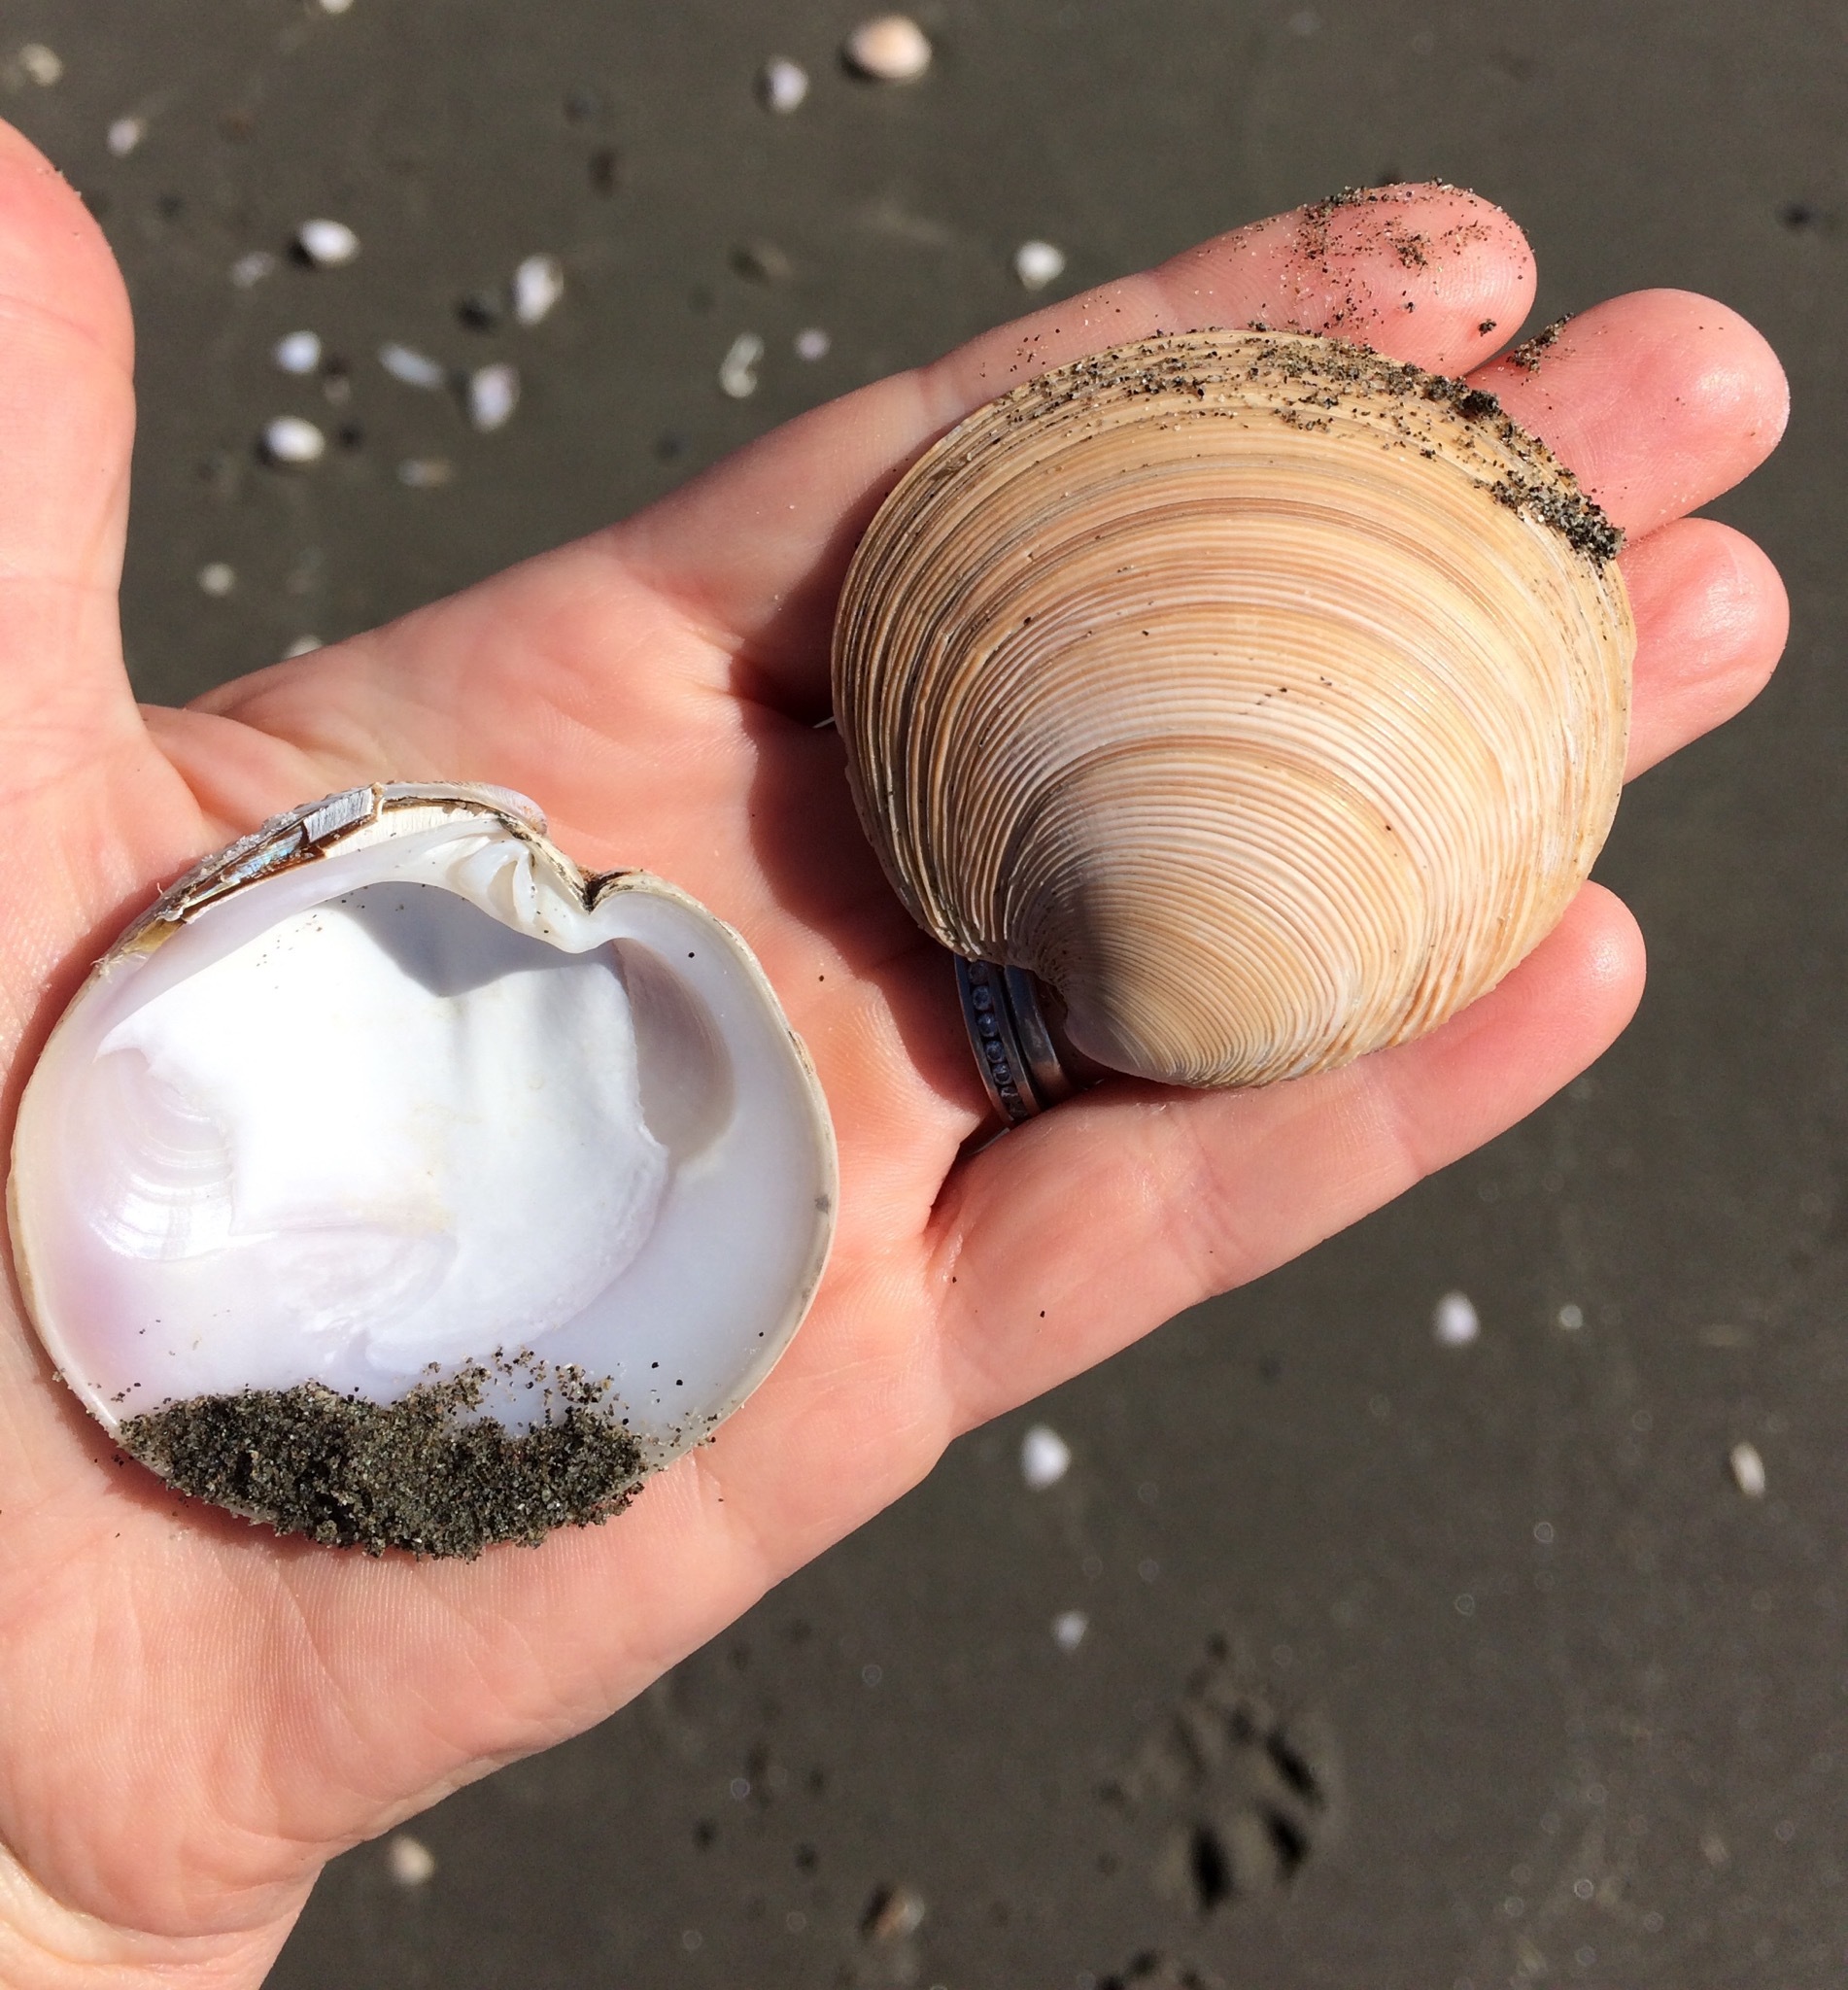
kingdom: Animalia
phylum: Mollusca
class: Bivalvia
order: Venerida
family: Veneridae
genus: Dosinia
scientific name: Dosinia anus
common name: Old-woman dosinia
